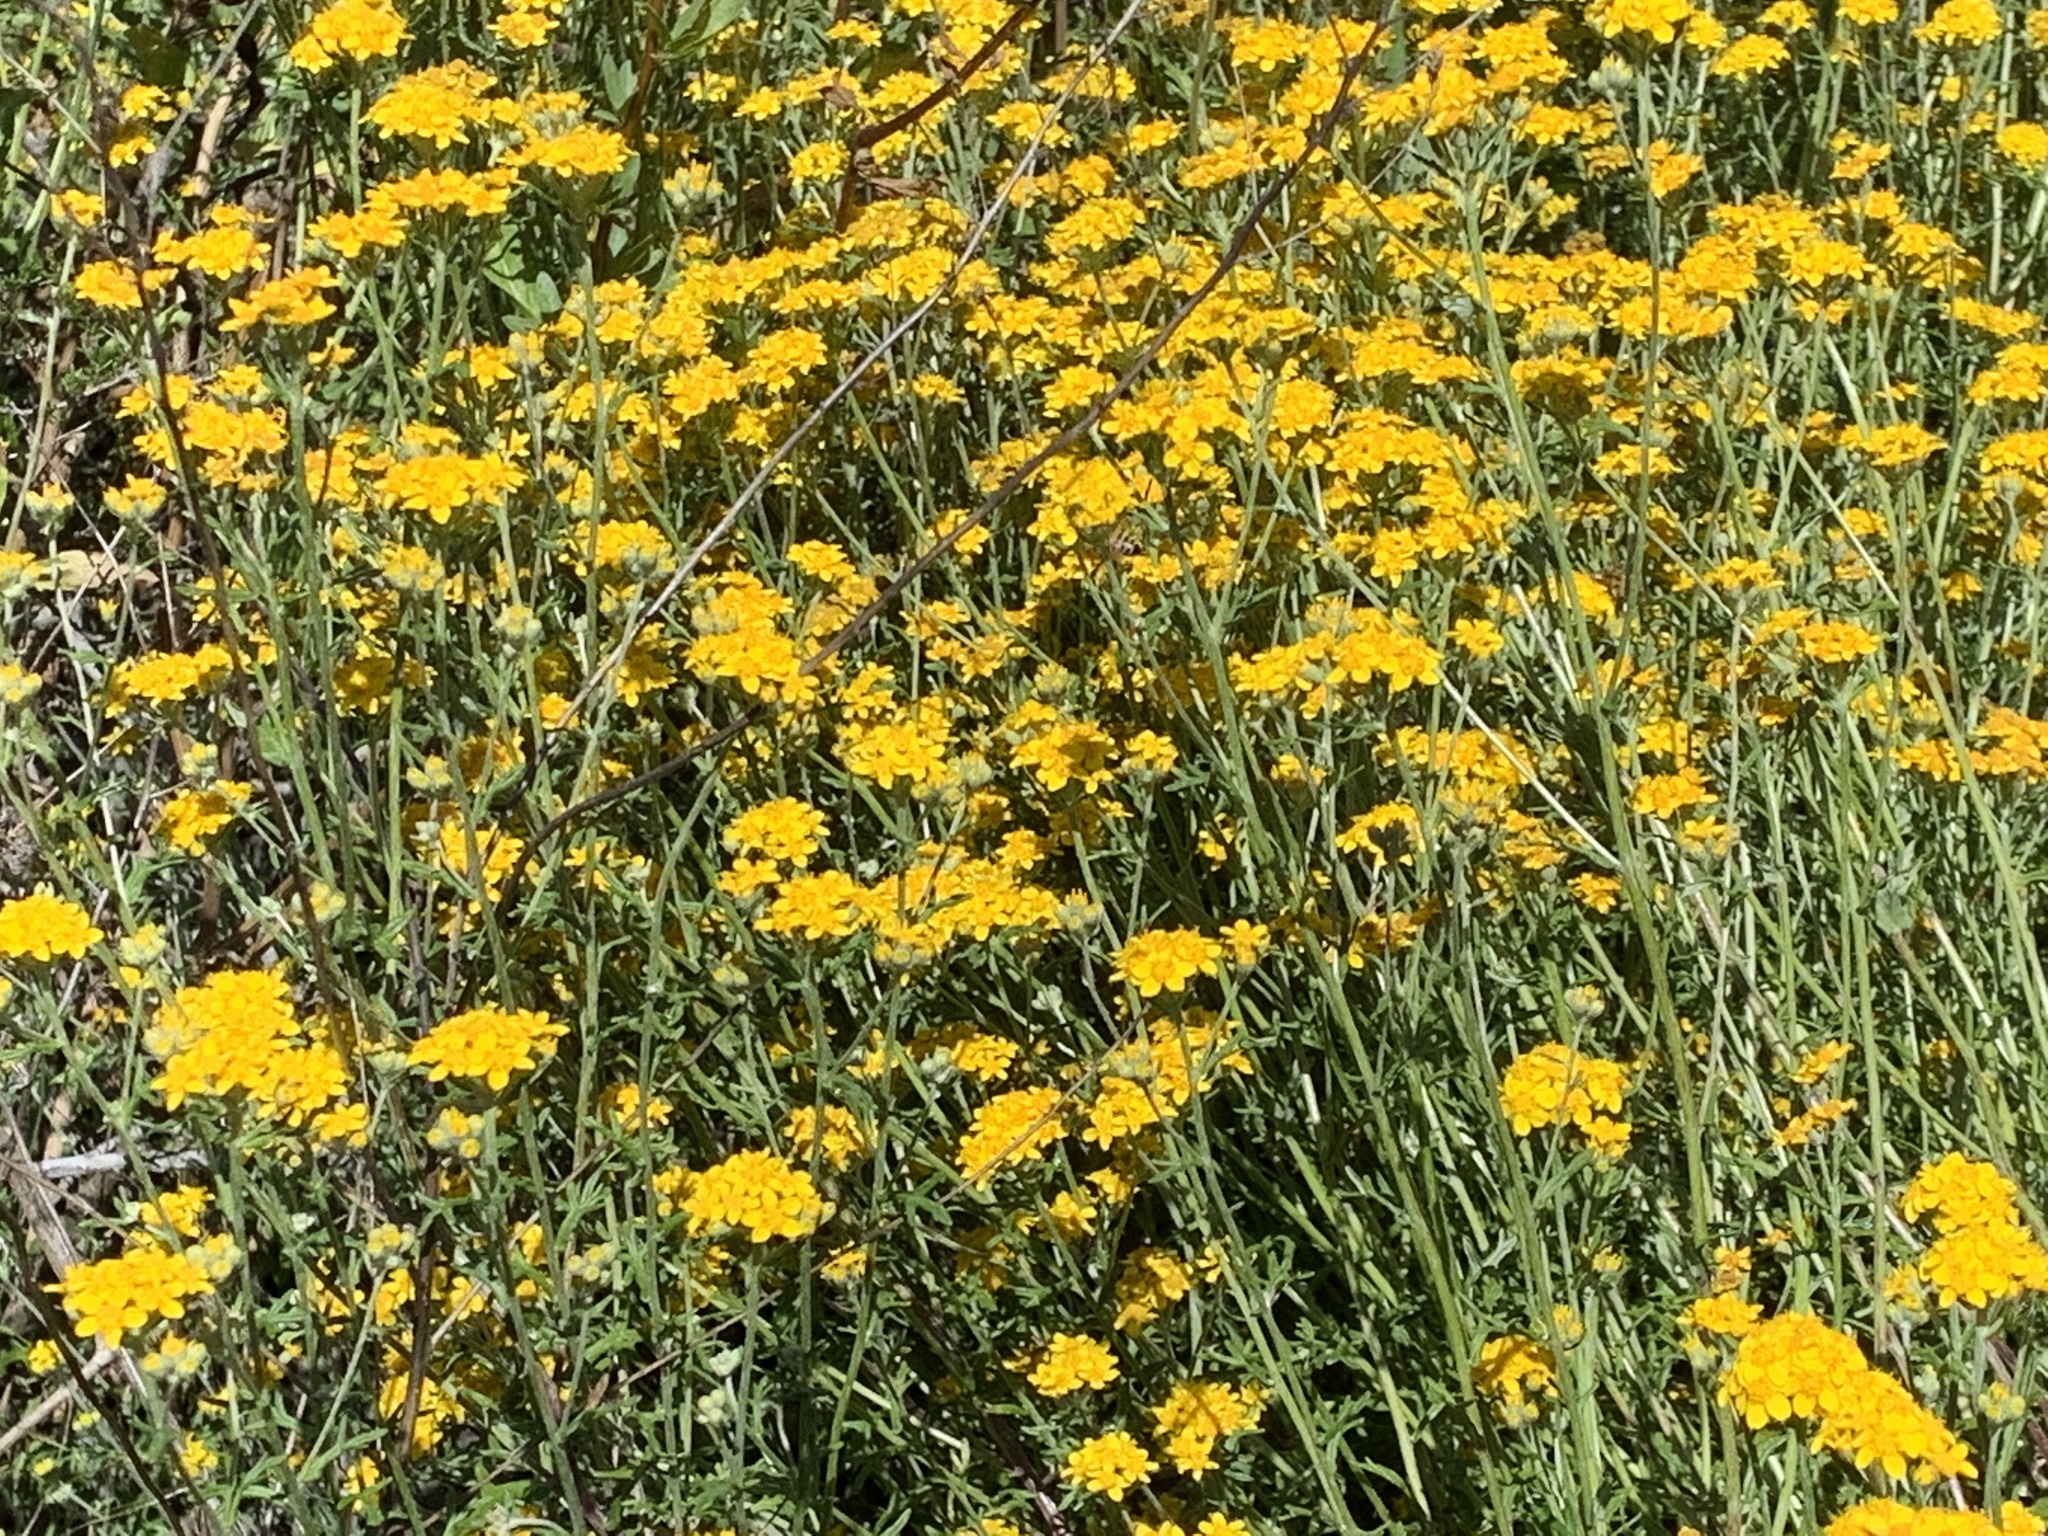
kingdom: Plantae
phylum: Tracheophyta
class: Magnoliopsida
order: Asterales
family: Asteraceae
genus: Eriophyllum
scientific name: Eriophyllum confertiflorum
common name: Golden-yarrow
